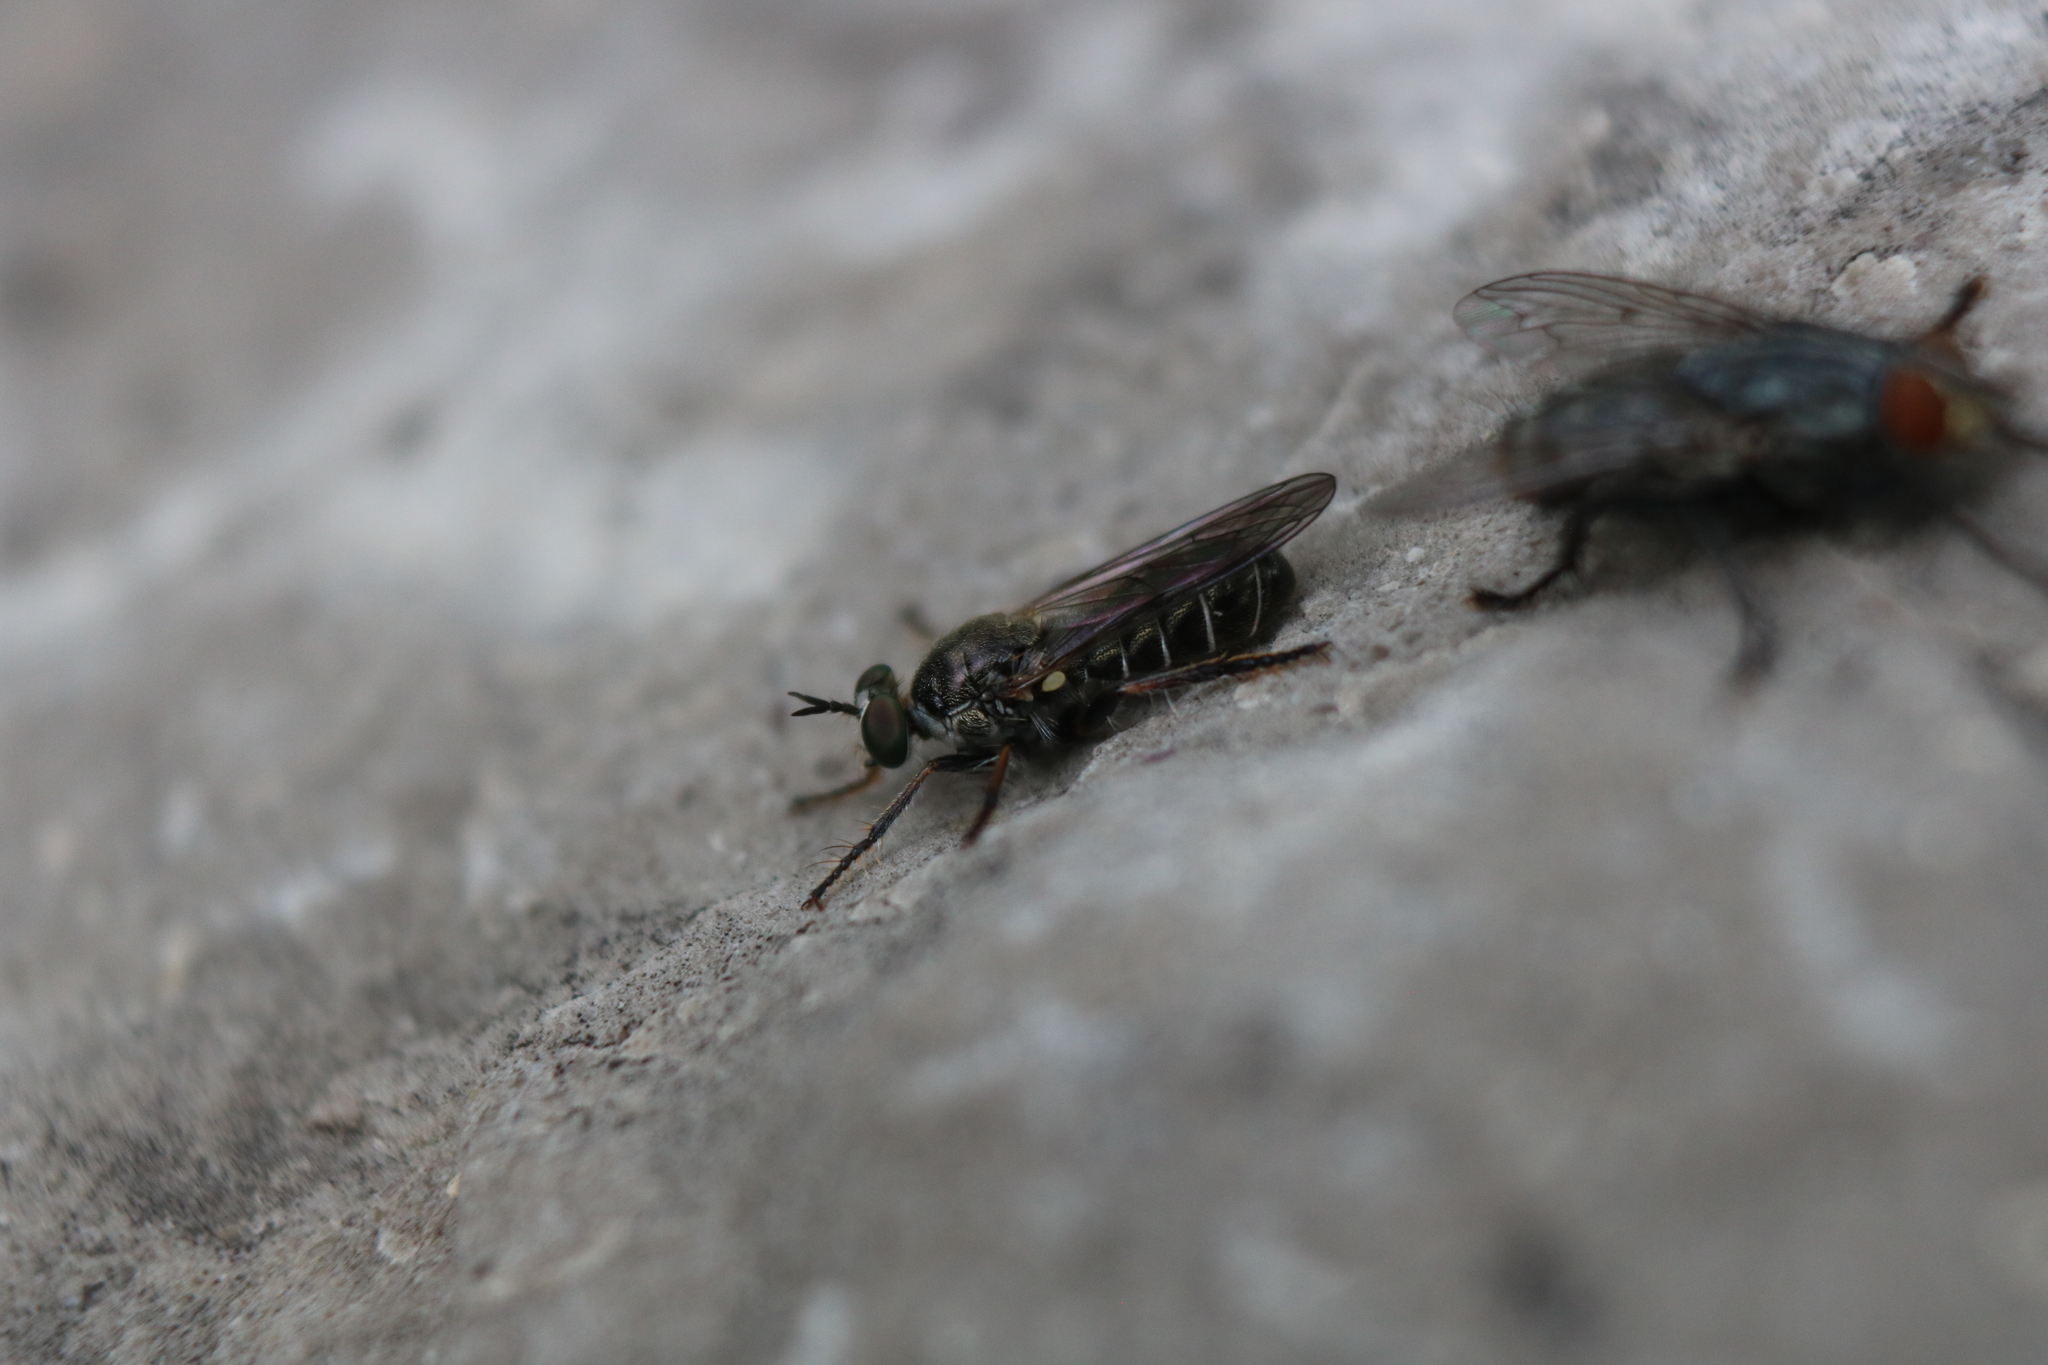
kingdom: Animalia
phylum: Arthropoda
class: Insecta
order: Diptera
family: Asilidae
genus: Atomosia
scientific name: Atomosia puella
